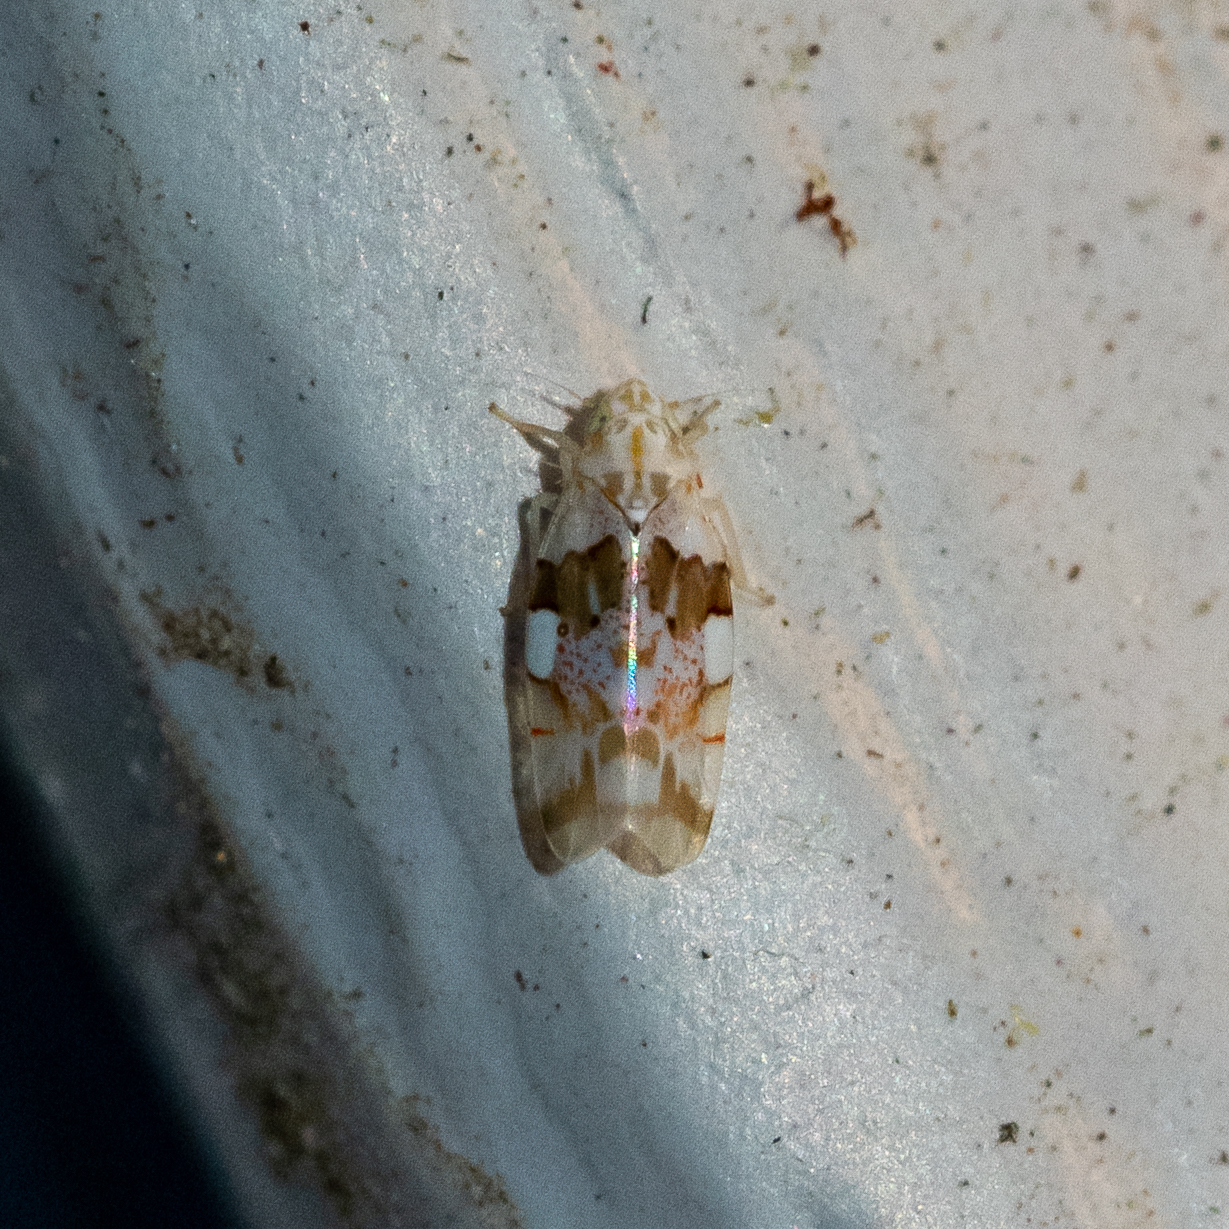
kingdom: Animalia
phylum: Arthropoda
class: Insecta
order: Hemiptera
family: Cicadellidae
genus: Hymetta
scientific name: Hymetta balteata
